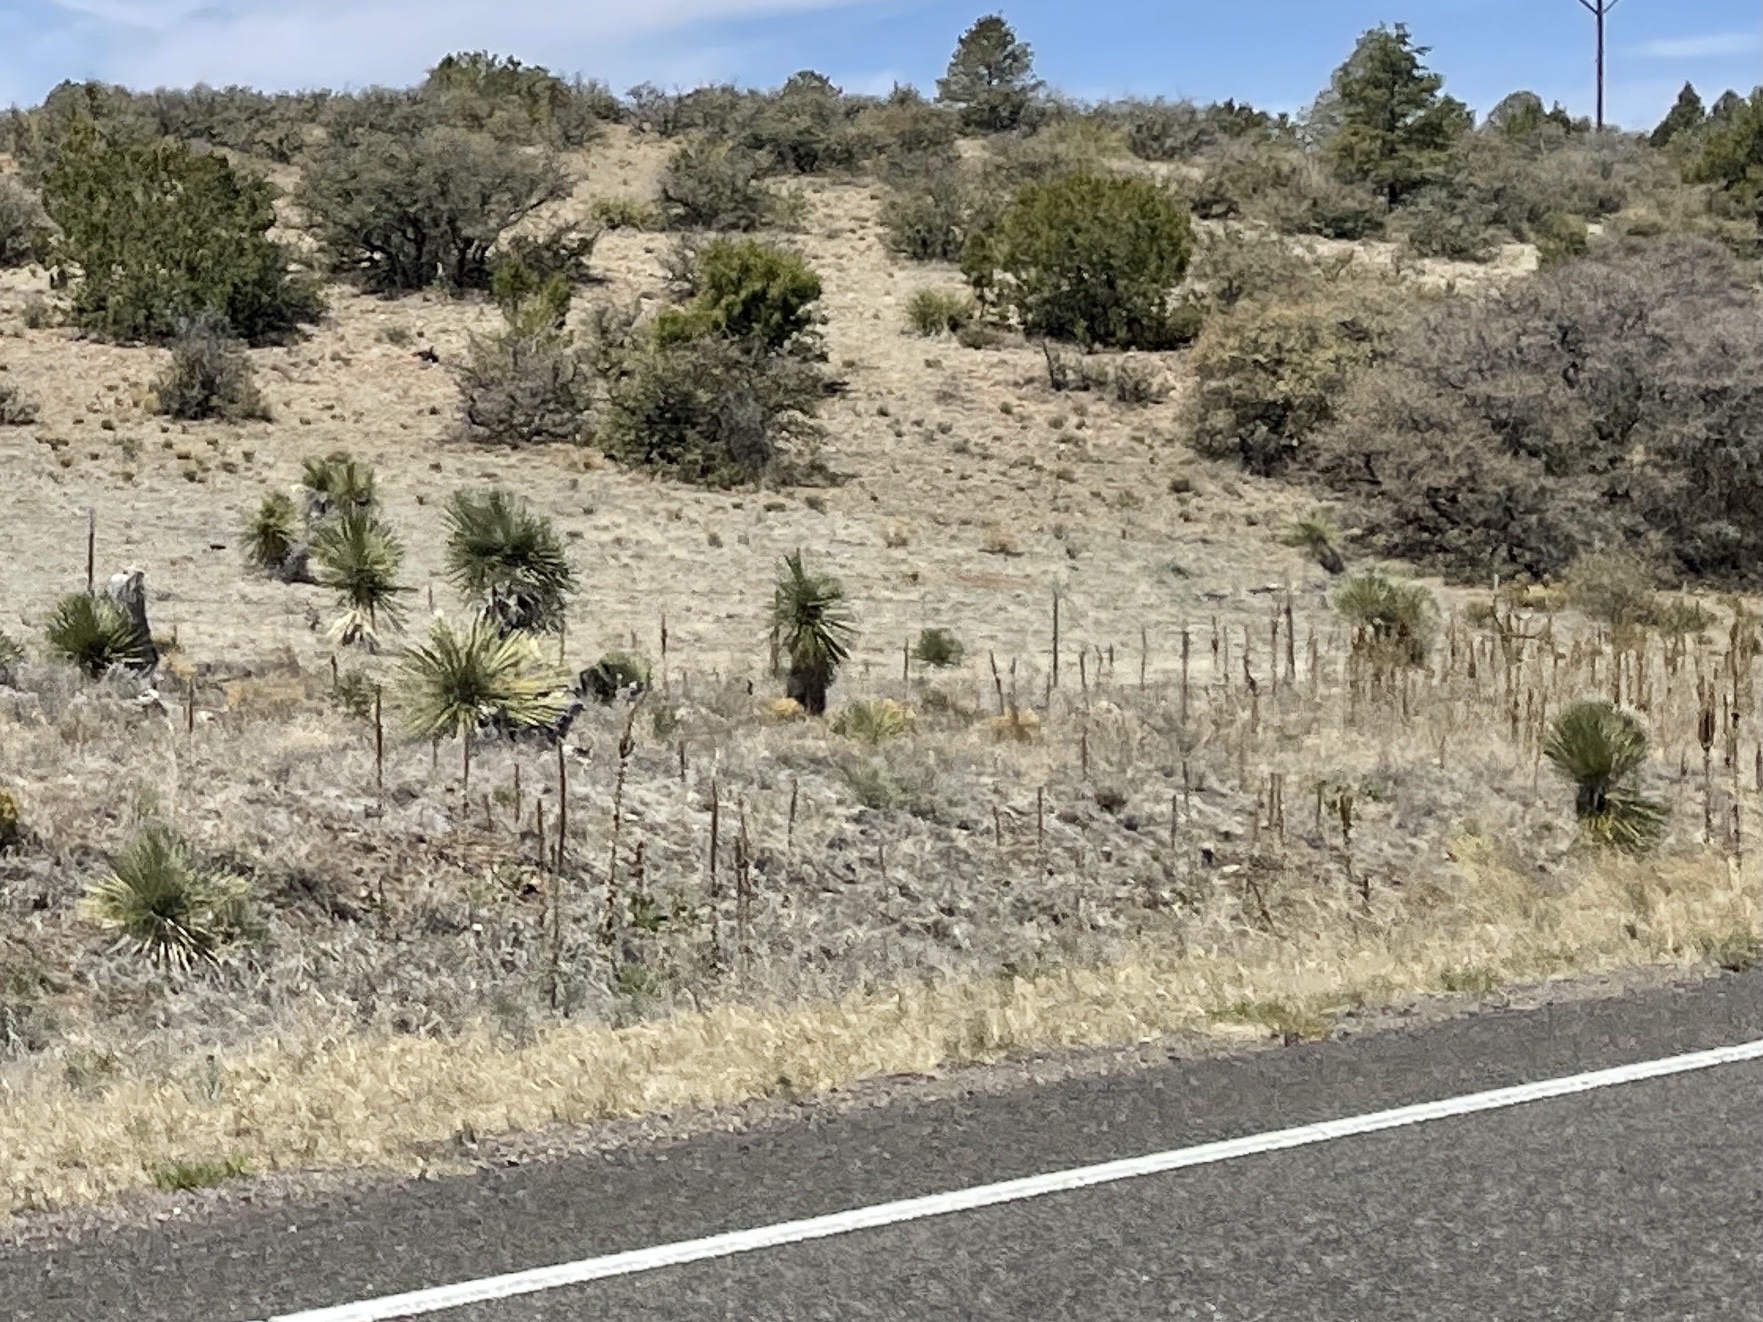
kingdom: Plantae
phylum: Tracheophyta
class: Liliopsida
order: Asparagales
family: Asparagaceae
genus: Yucca
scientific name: Yucca elata
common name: Palmella
